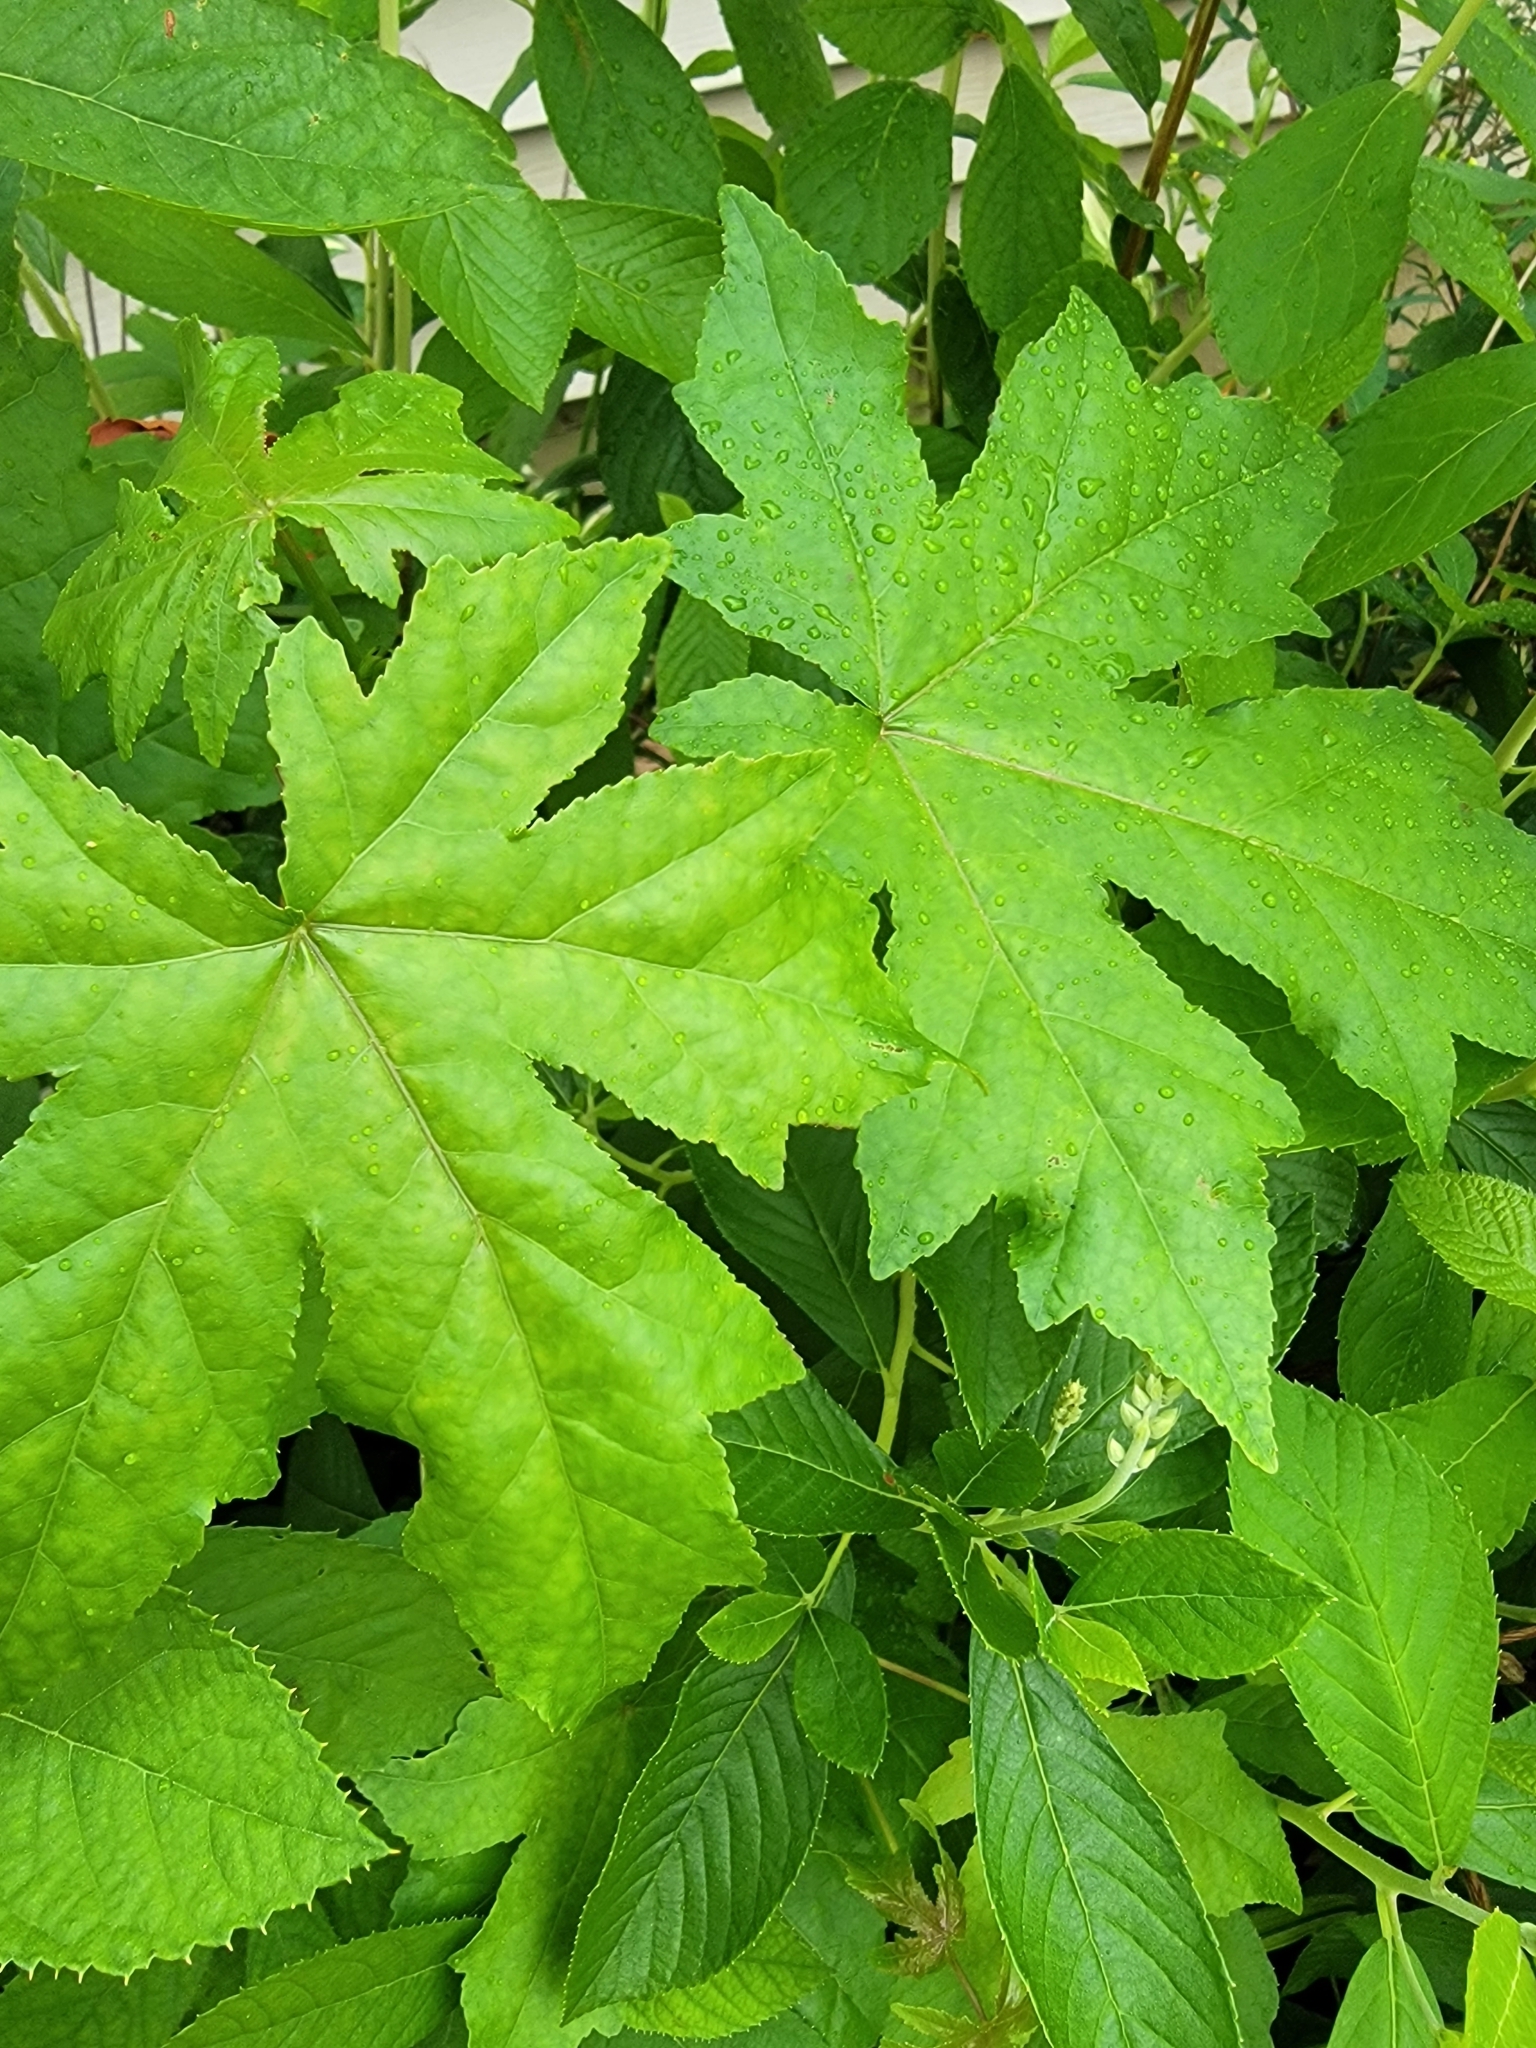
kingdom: Plantae
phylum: Tracheophyta
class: Magnoliopsida
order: Saxifragales
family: Altingiaceae
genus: Liquidambar
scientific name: Liquidambar styraciflua
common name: Sweet gum
